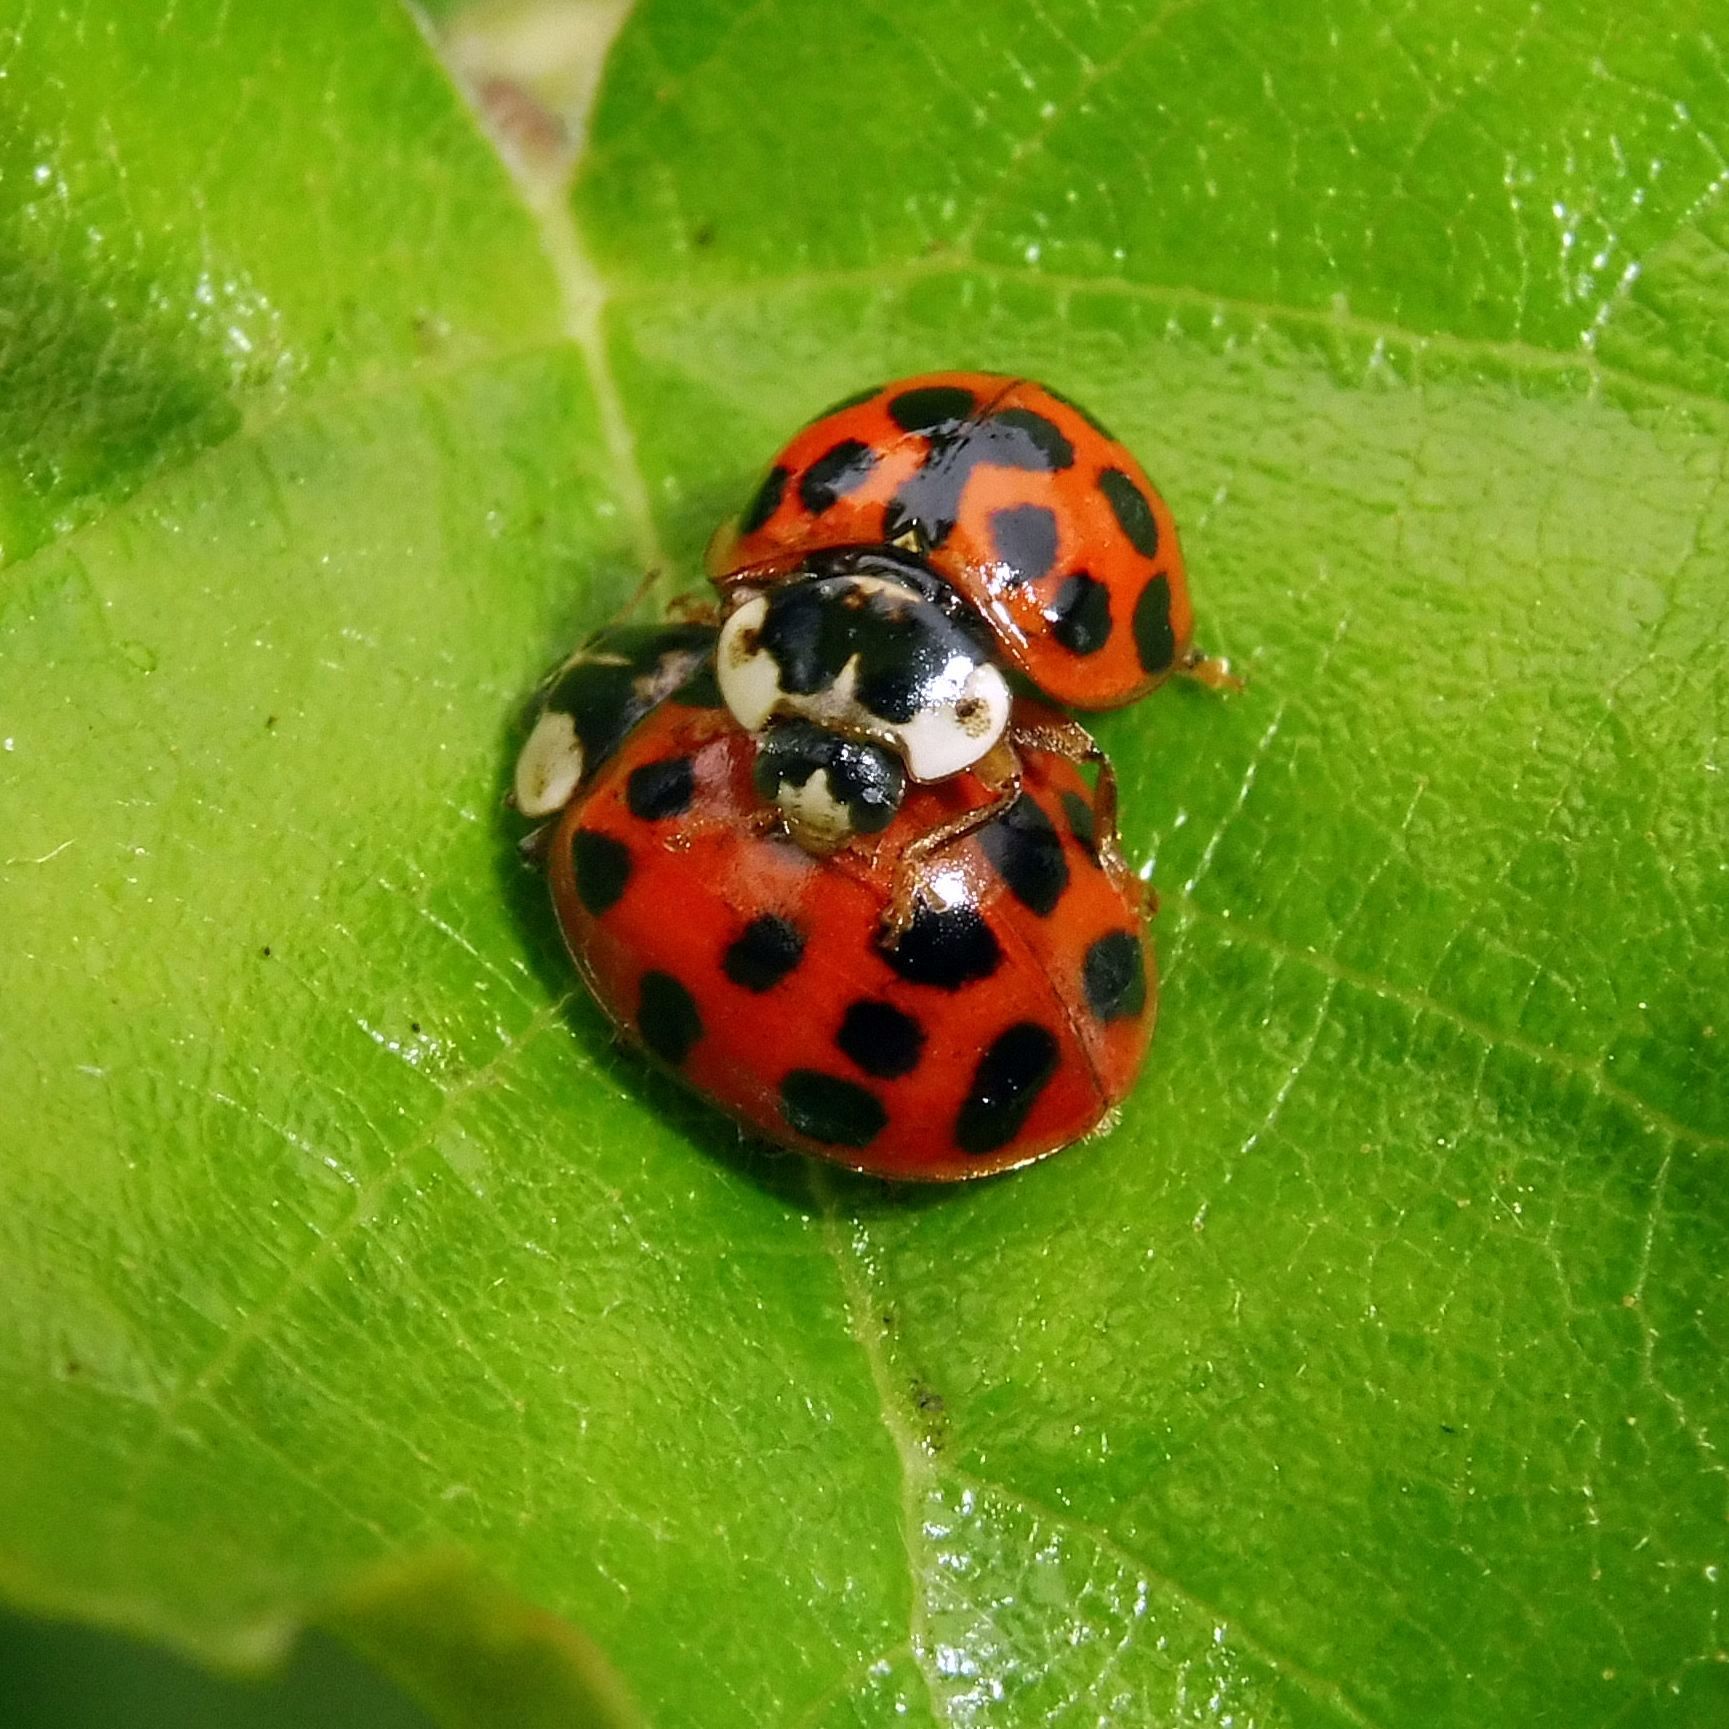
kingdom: Animalia
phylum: Arthropoda
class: Insecta
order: Coleoptera
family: Coccinellidae
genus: Harmonia
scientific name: Harmonia axyridis
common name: Harlequin ladybird
